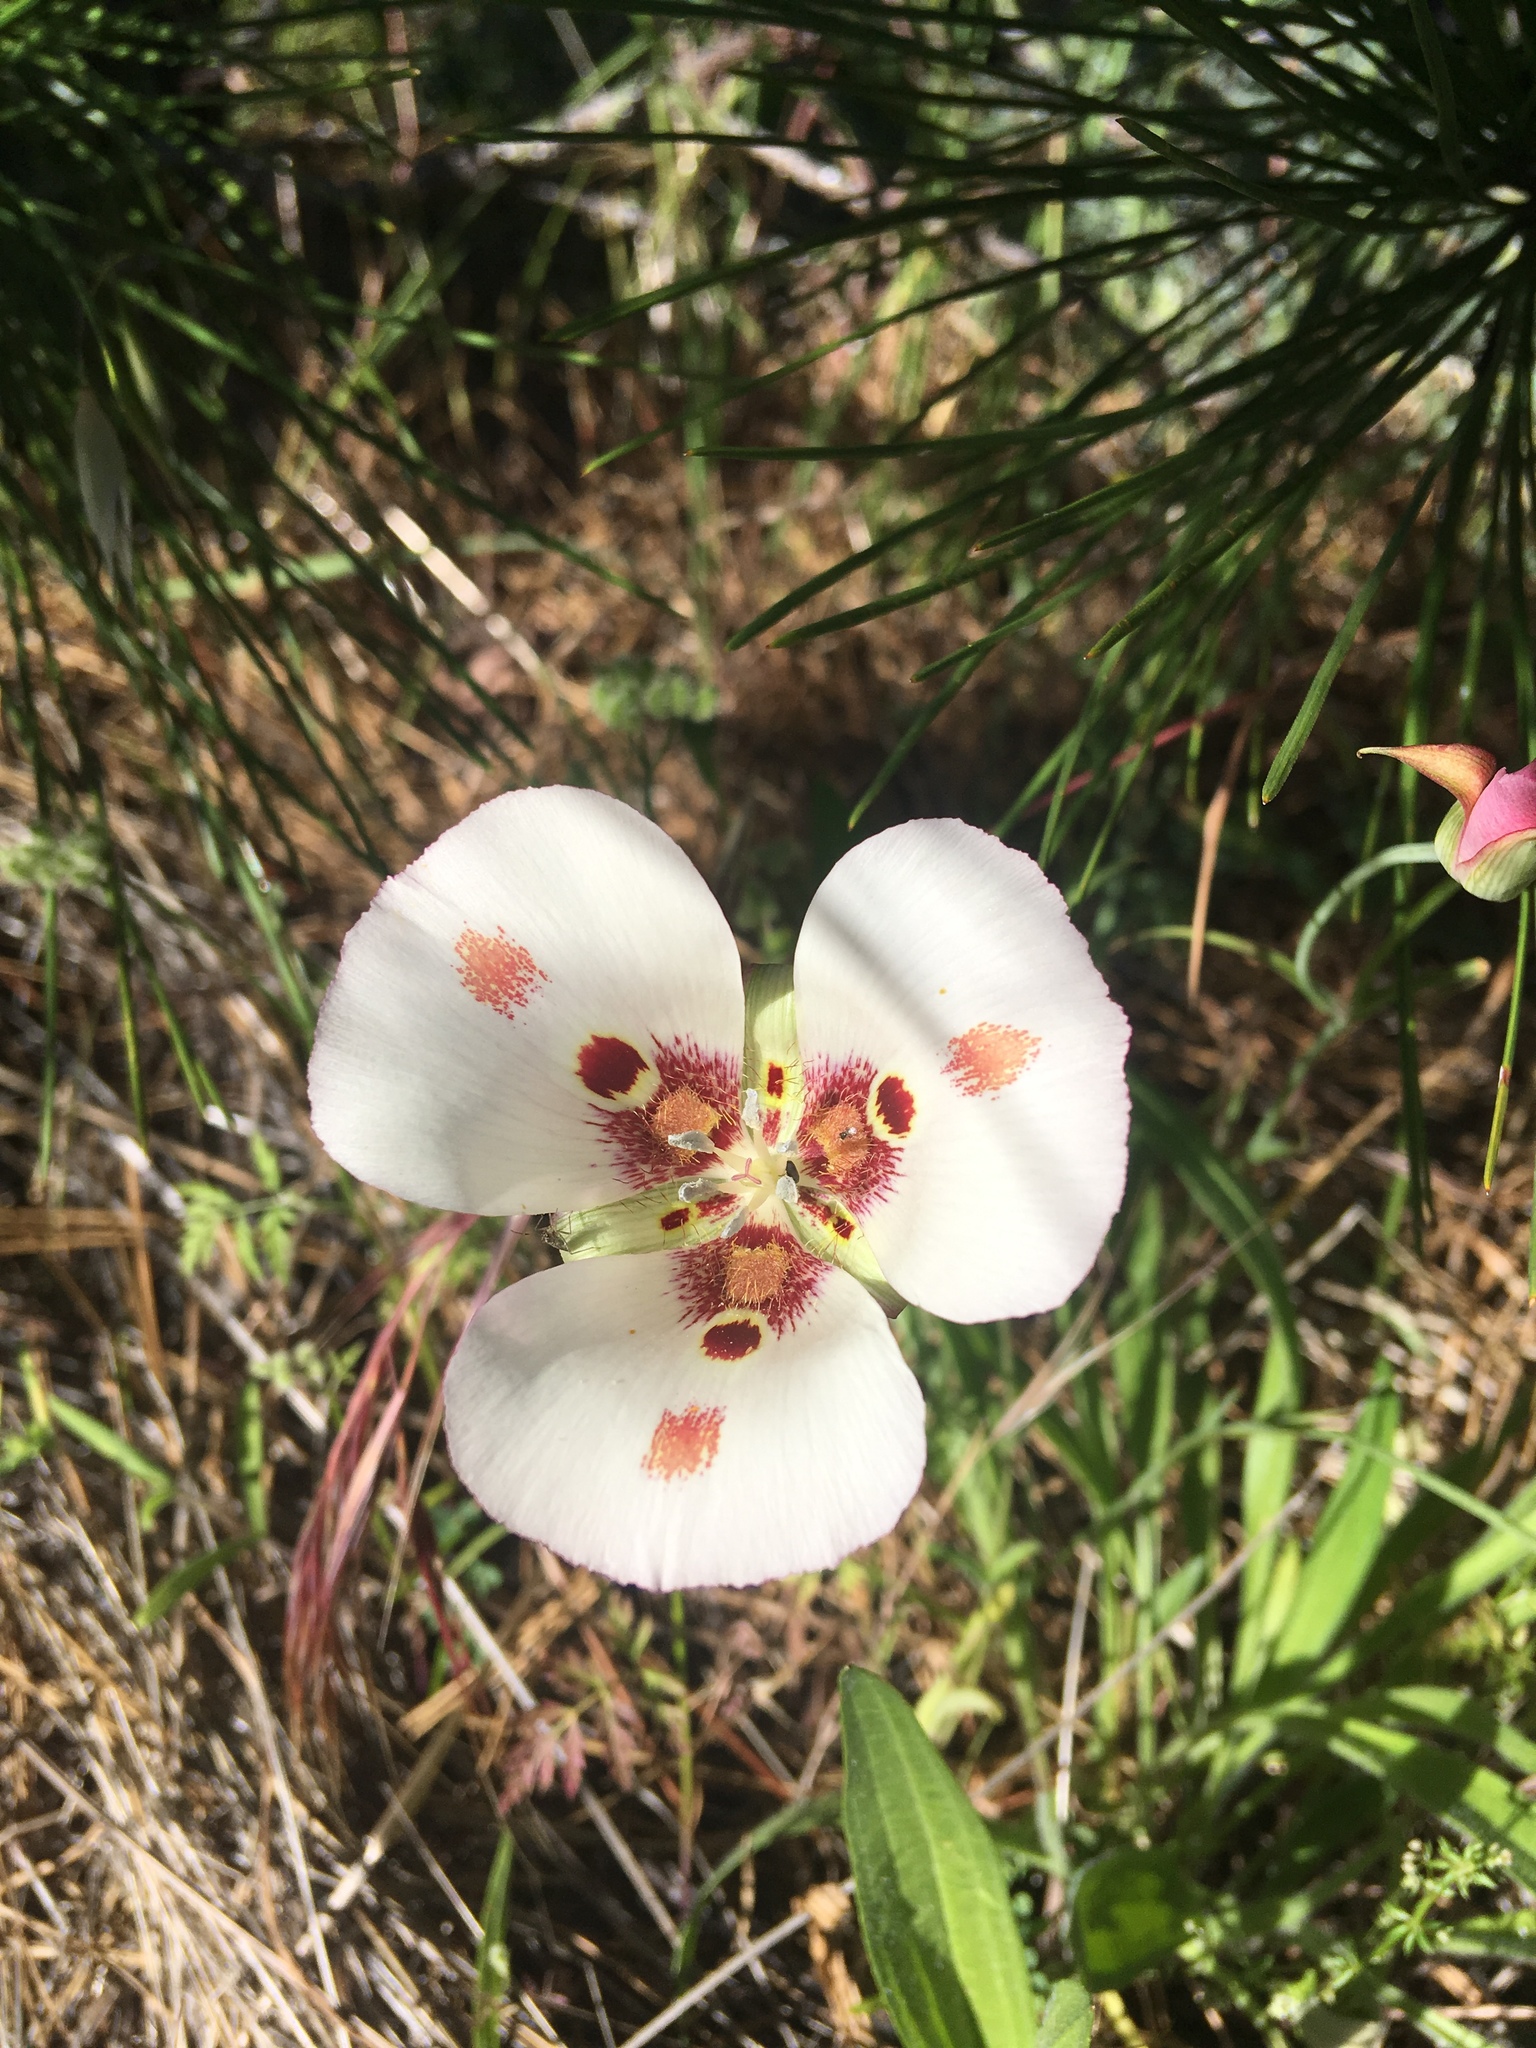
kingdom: Plantae
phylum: Tracheophyta
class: Liliopsida
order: Liliales
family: Liliaceae
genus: Calochortus
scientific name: Calochortus venustus
